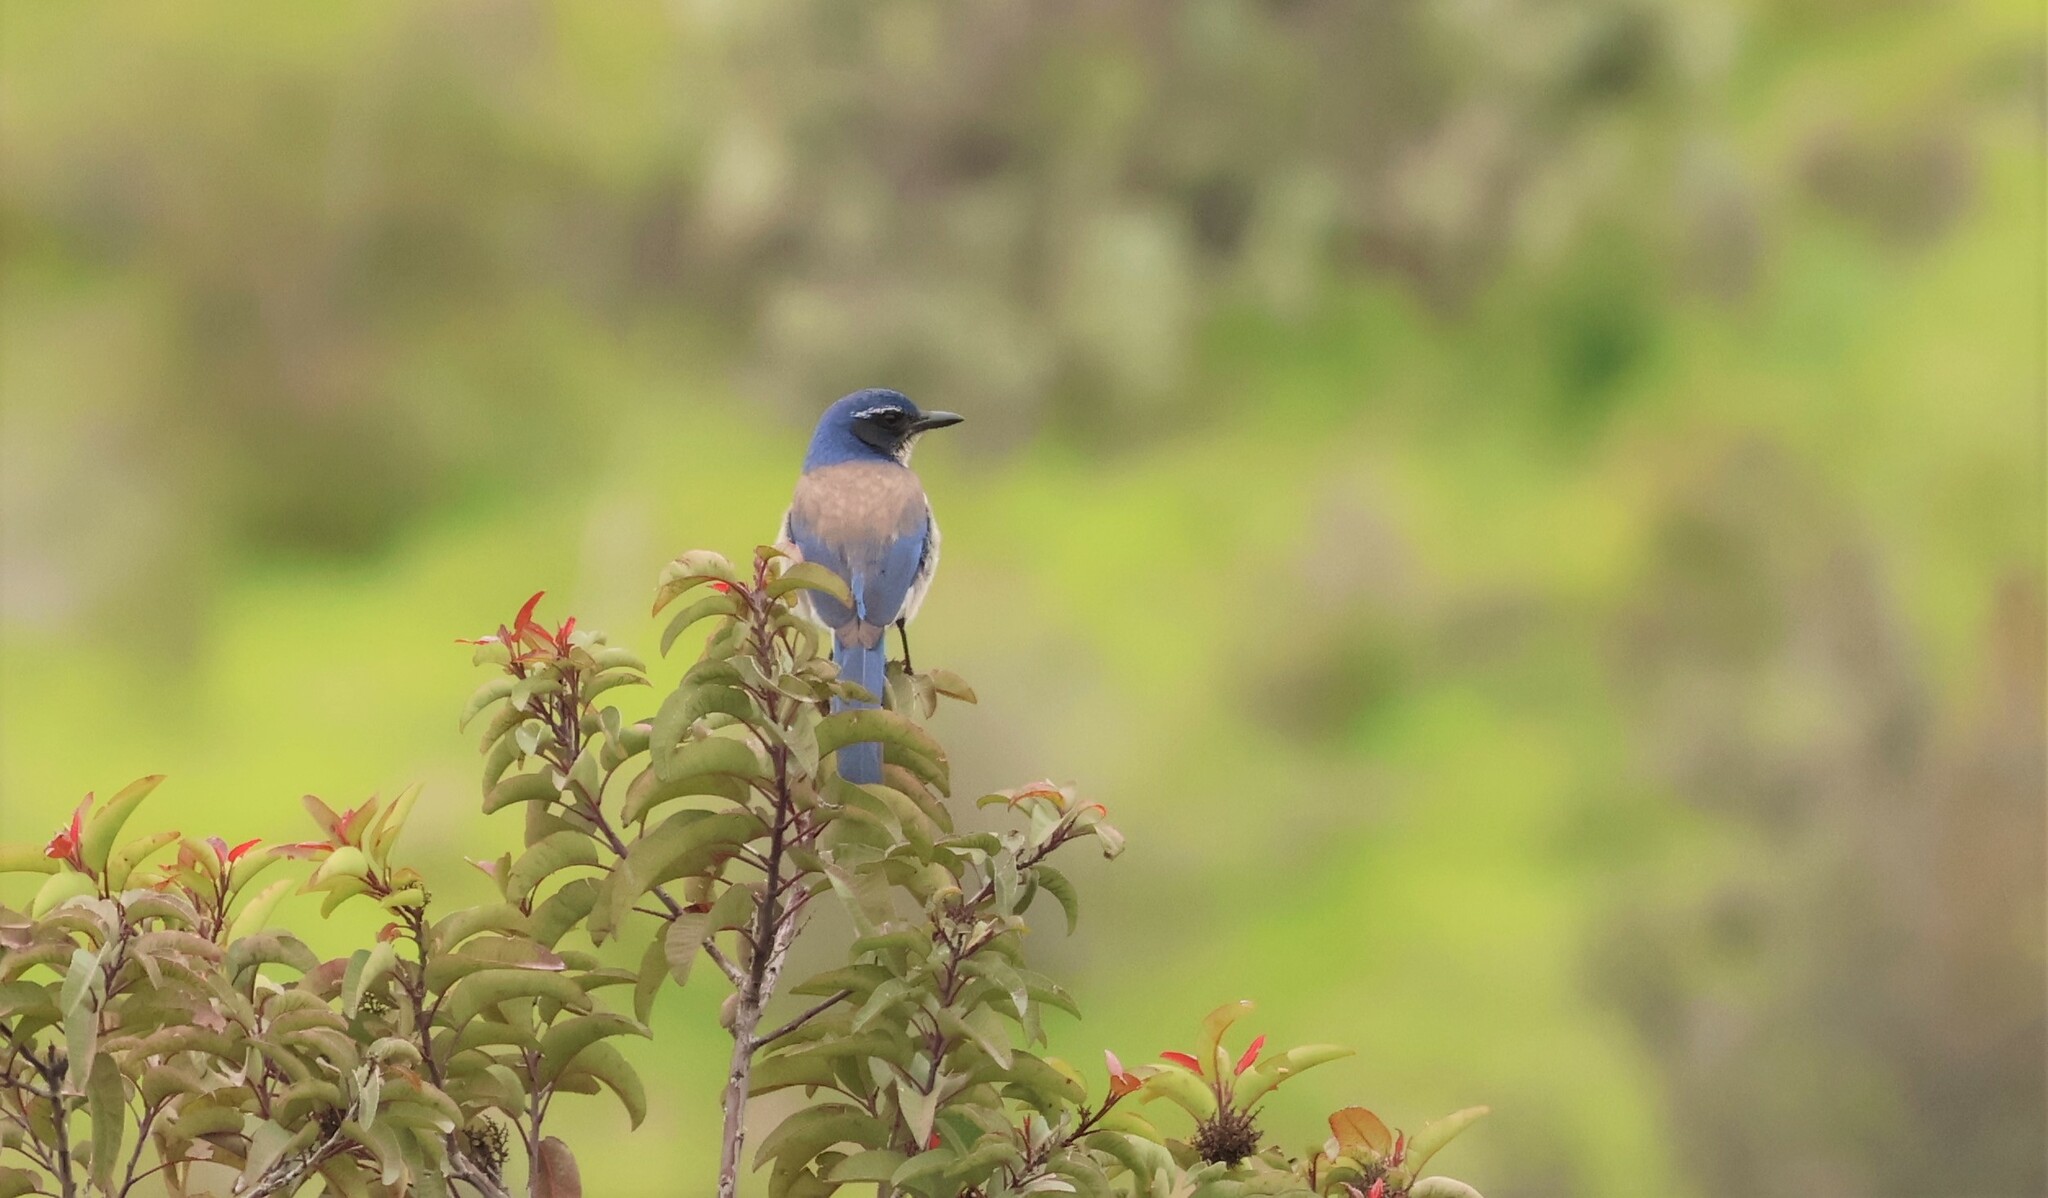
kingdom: Animalia
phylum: Chordata
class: Aves
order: Passeriformes
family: Corvidae
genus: Aphelocoma
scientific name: Aphelocoma californica
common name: California scrub-jay
